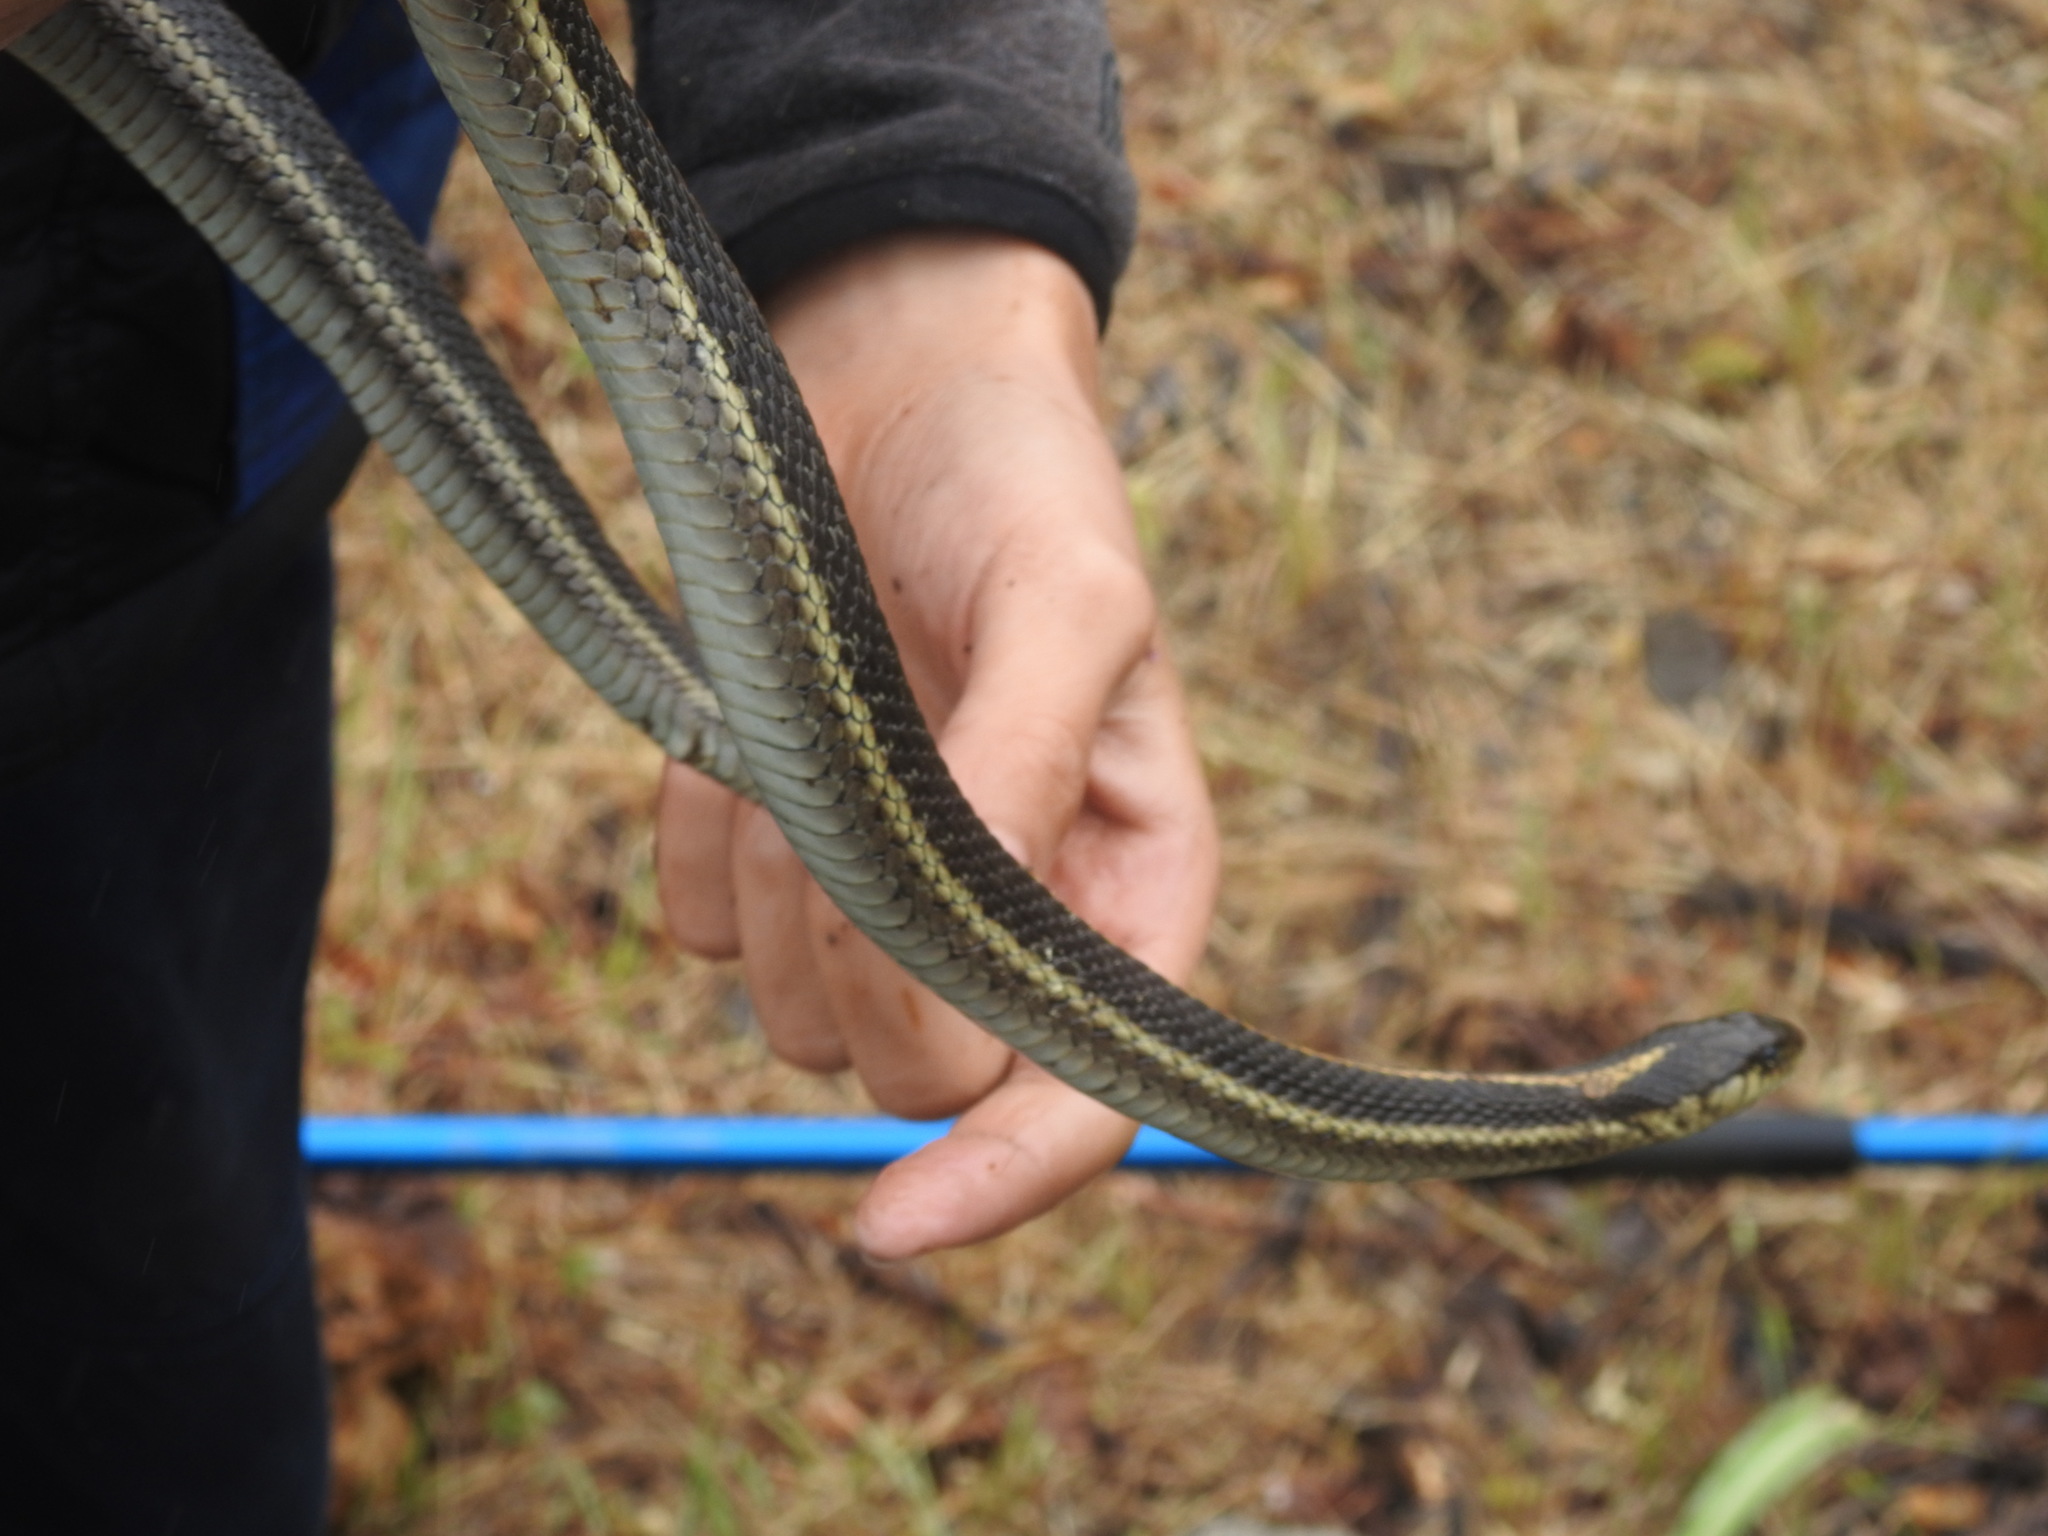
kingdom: Animalia
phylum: Chordata
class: Squamata
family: Colubridae
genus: Thamnophis
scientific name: Thamnophis atratus
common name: Pacific coast aquatic garter snake
